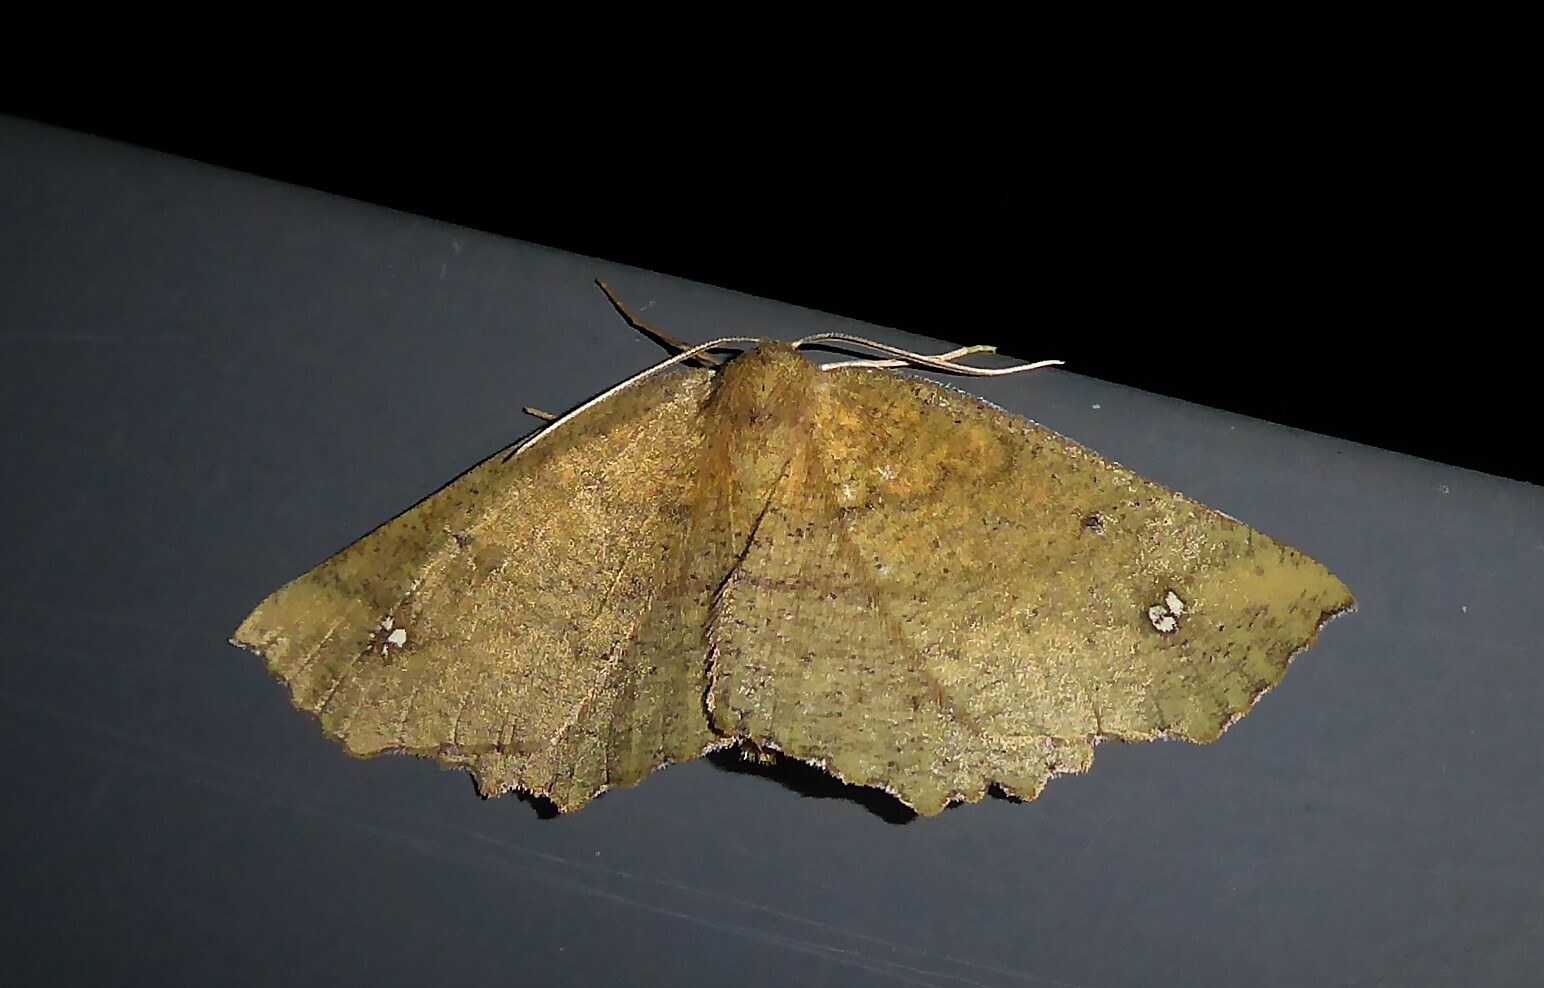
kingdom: Animalia
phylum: Arthropoda
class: Insecta
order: Lepidoptera
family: Geometridae
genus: Xyridacma
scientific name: Xyridacma ustaria
